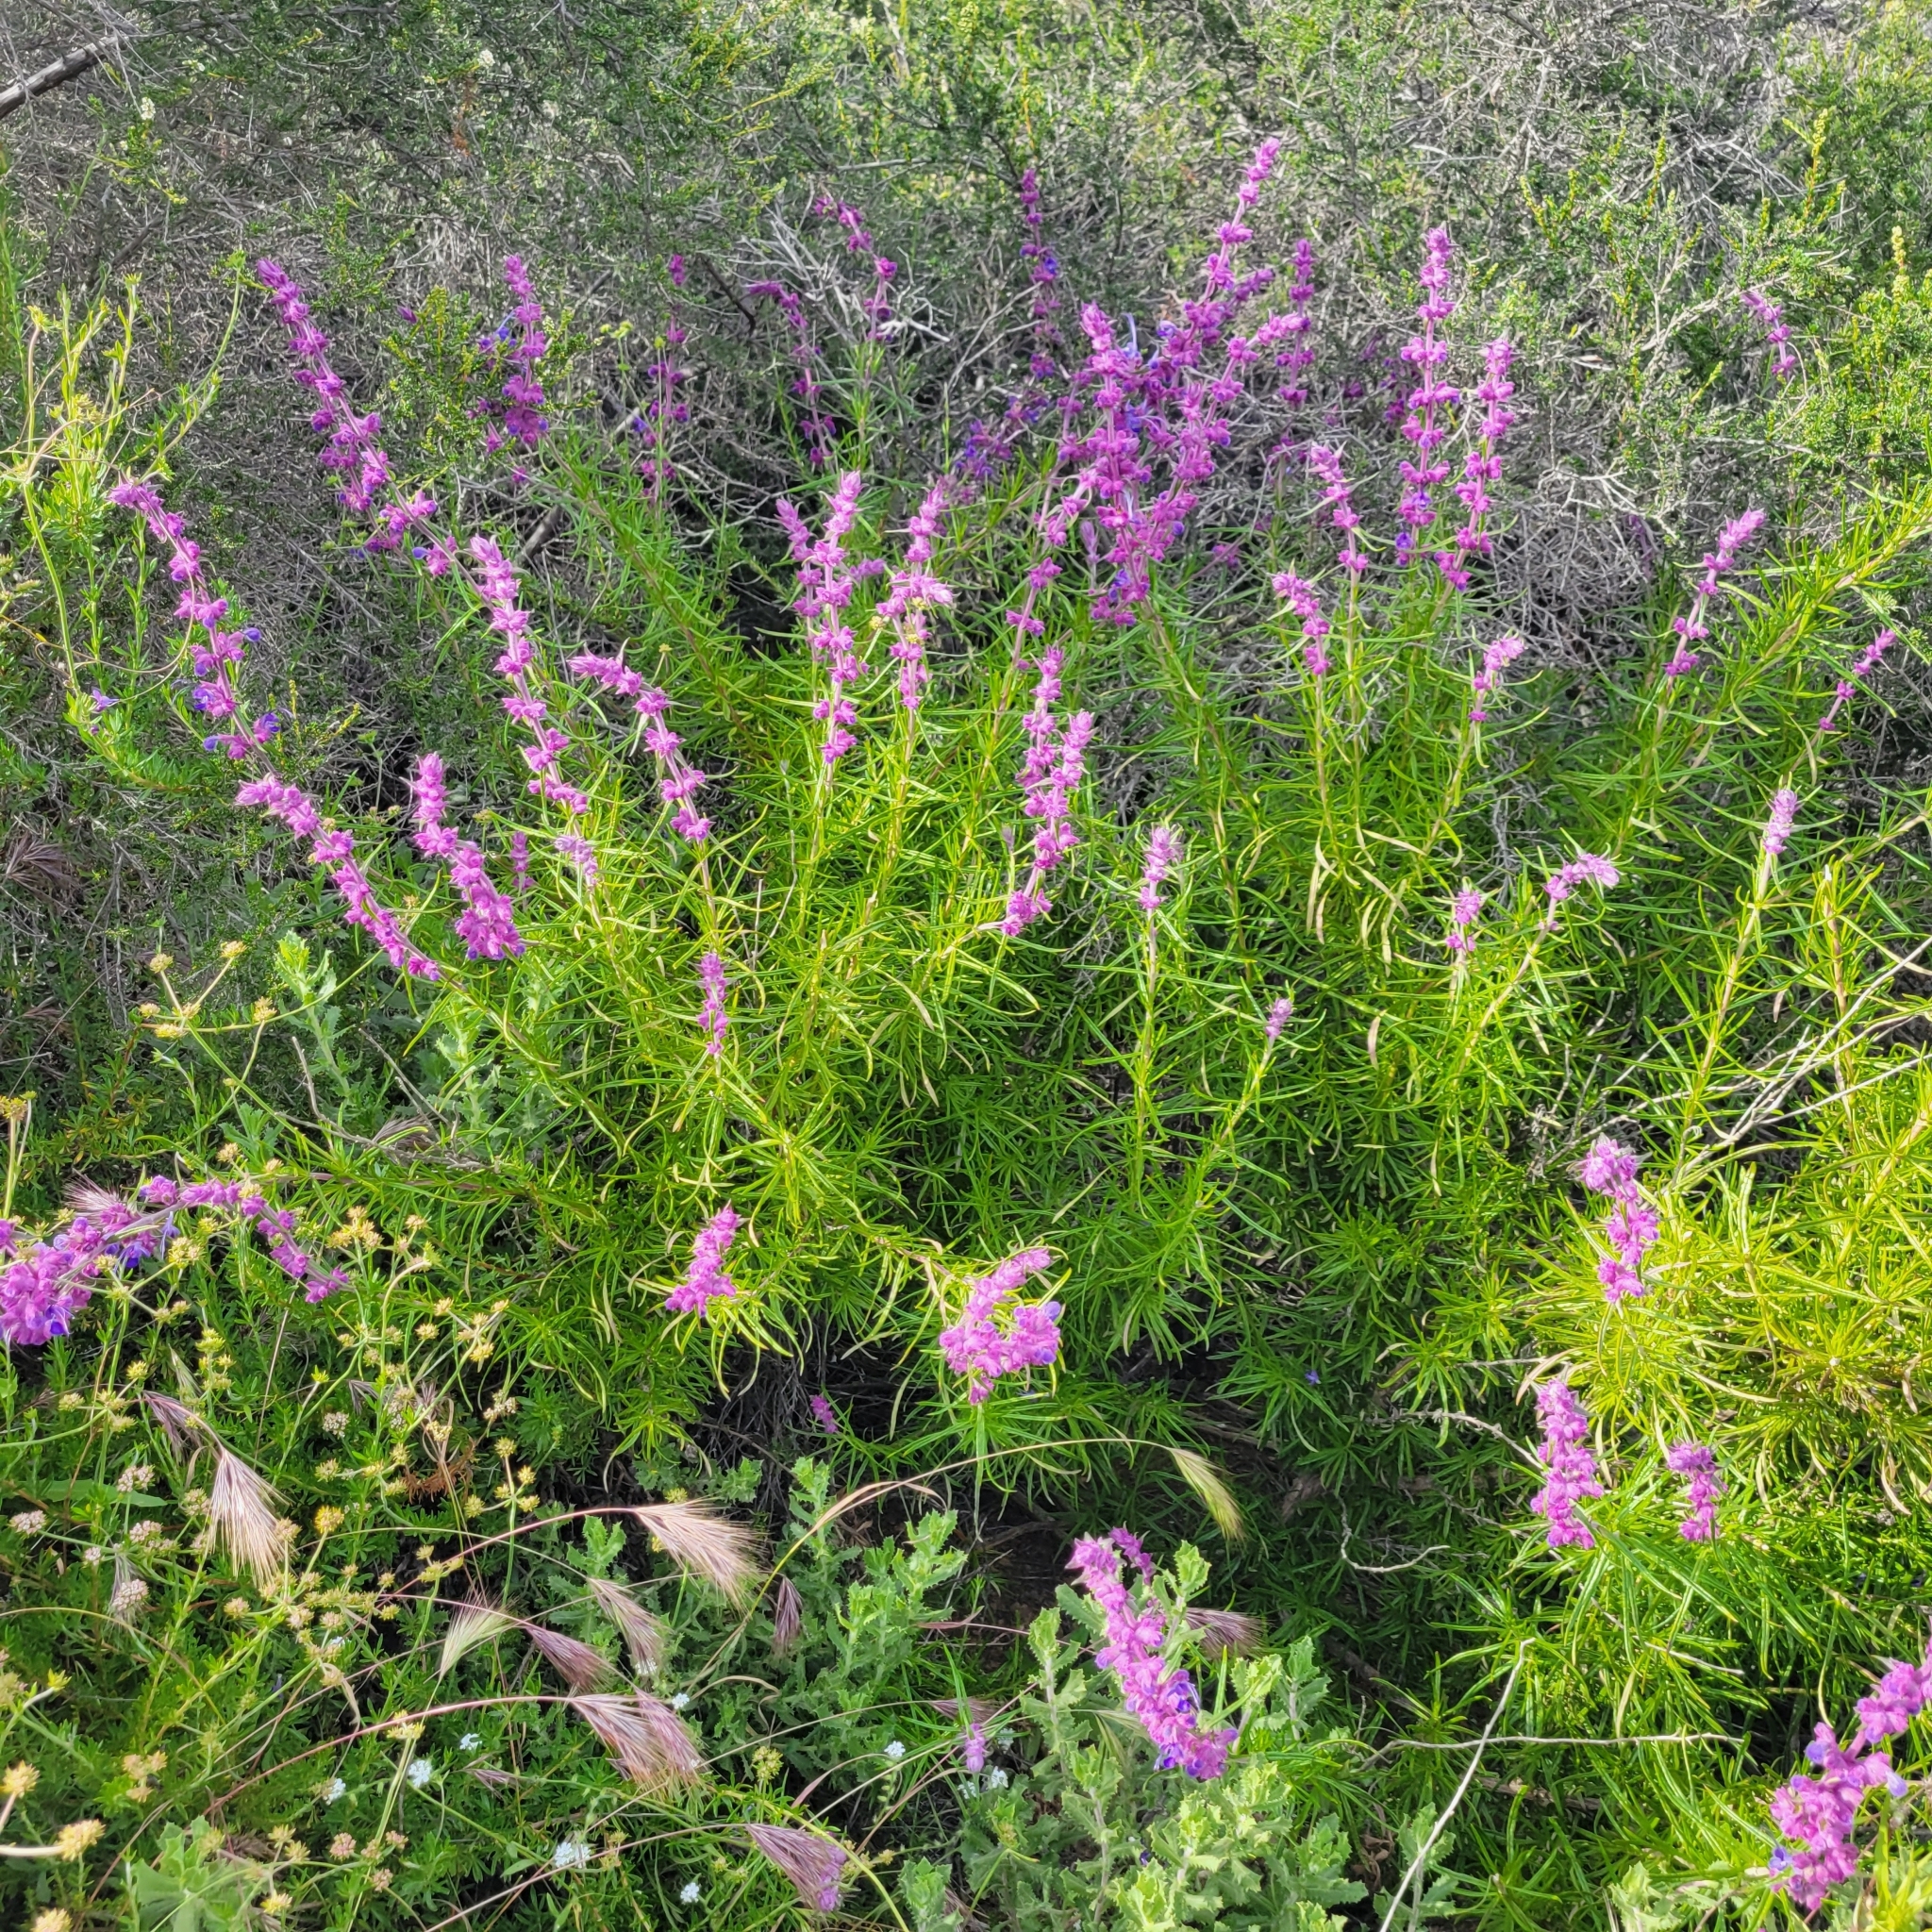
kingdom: Plantae
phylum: Tracheophyta
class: Magnoliopsida
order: Lamiales
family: Lamiaceae
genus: Trichostema
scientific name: Trichostema lanatum
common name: Woolly bluecurls
